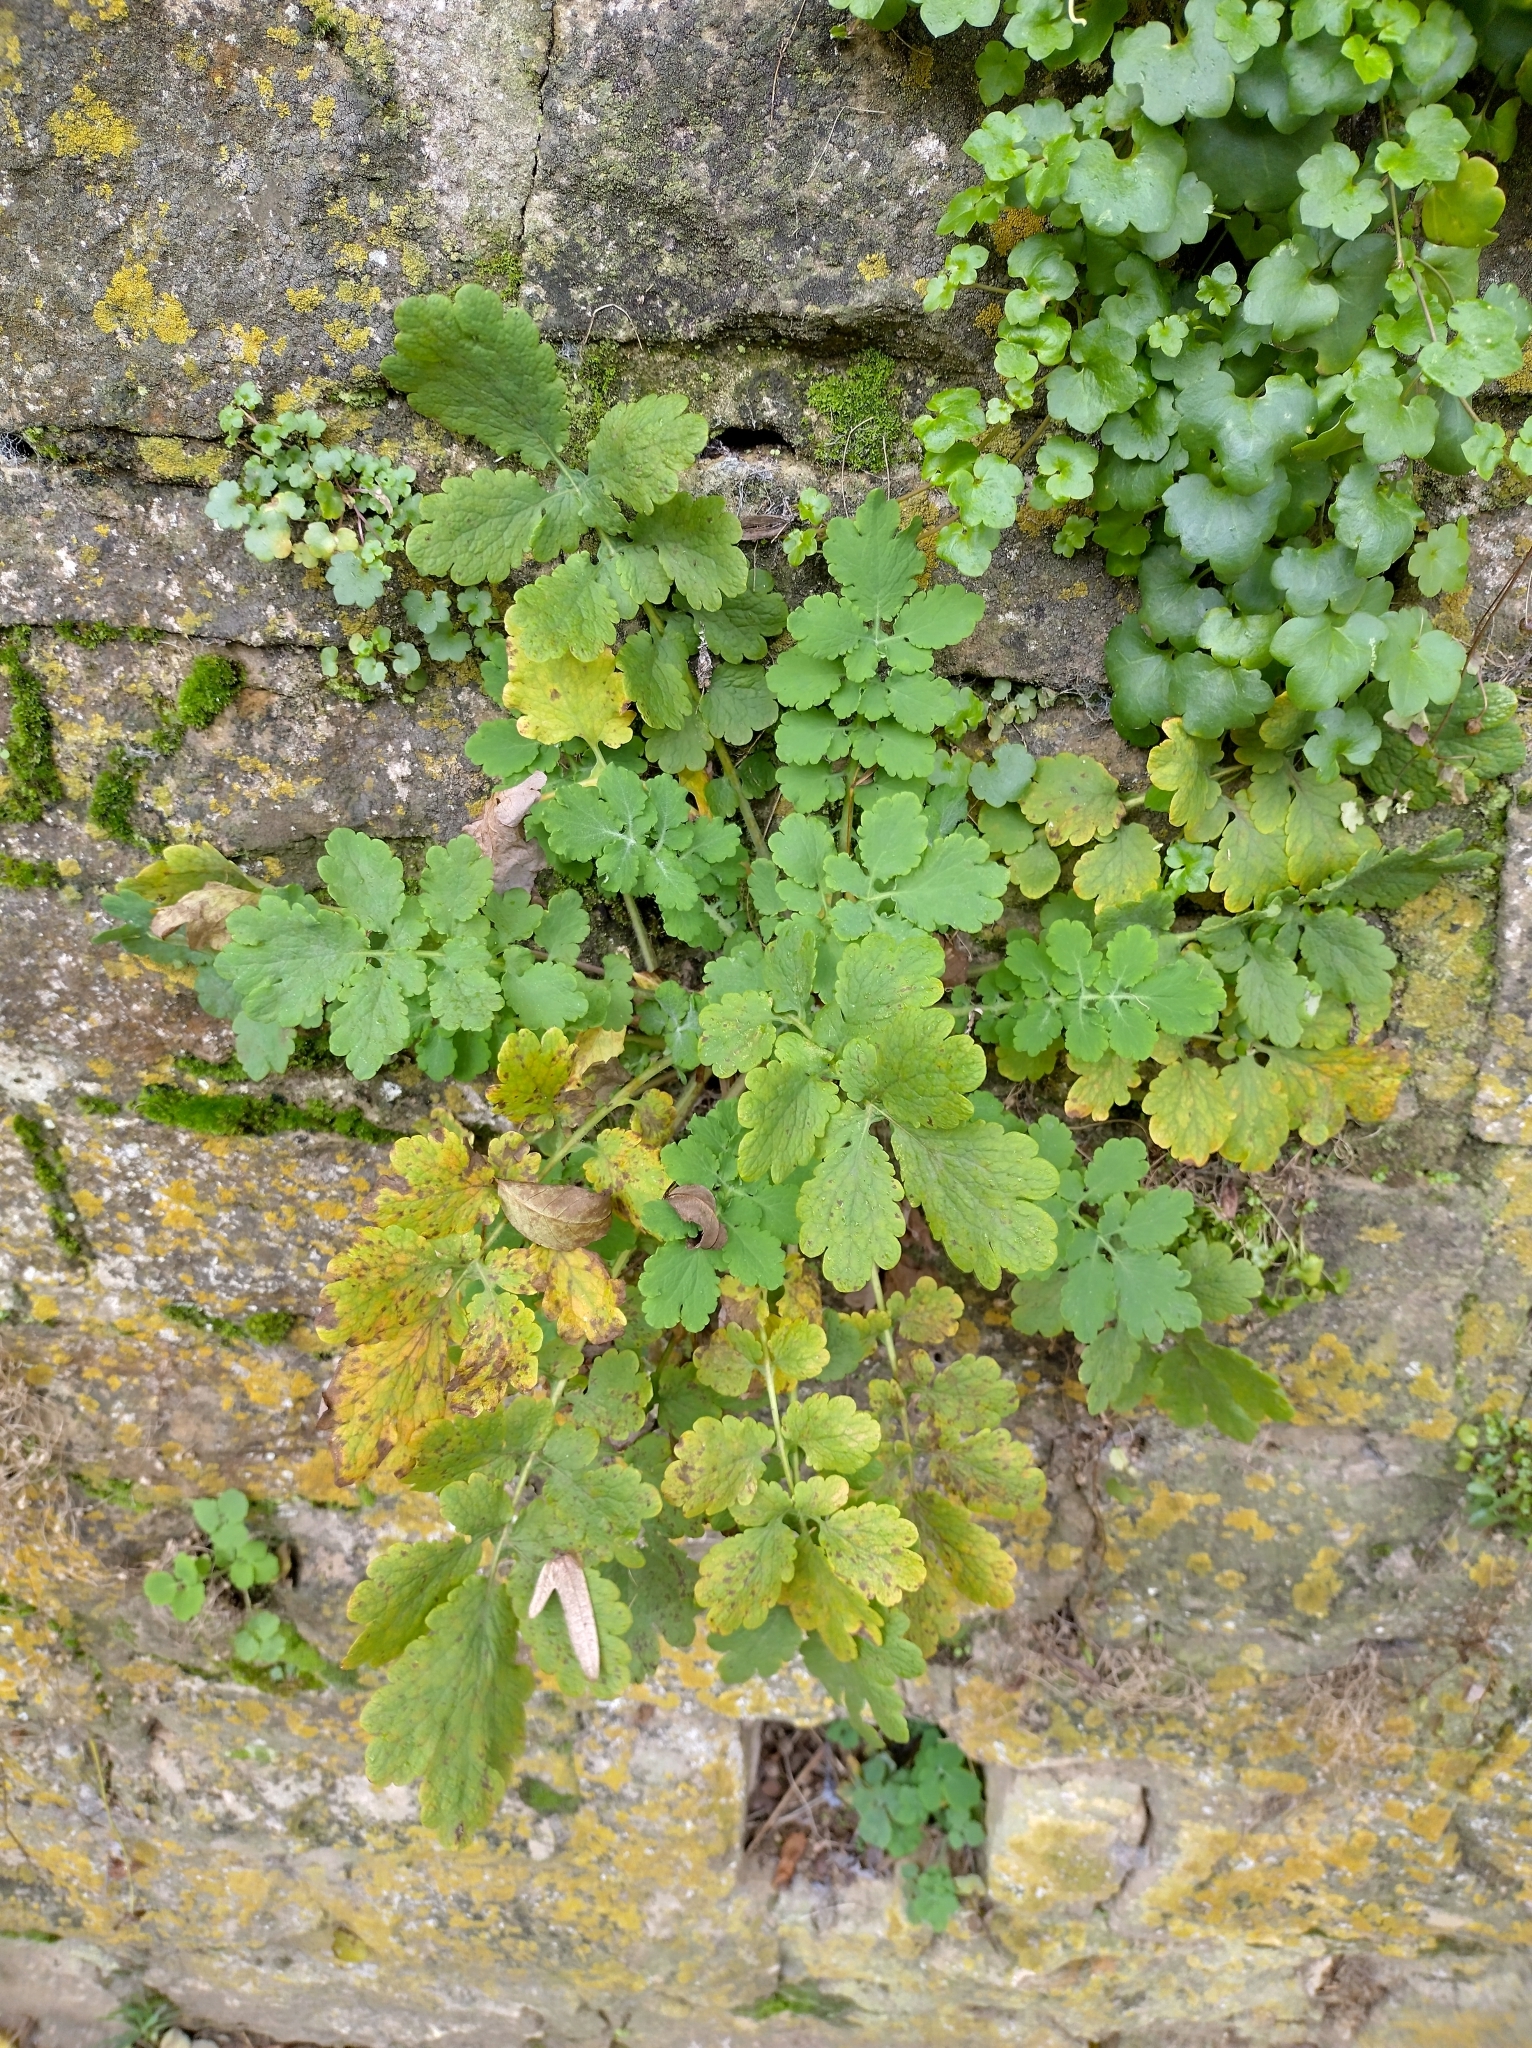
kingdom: Plantae
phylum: Tracheophyta
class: Magnoliopsida
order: Ranunculales
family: Papaveraceae
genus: Chelidonium
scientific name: Chelidonium majus
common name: Greater celandine
